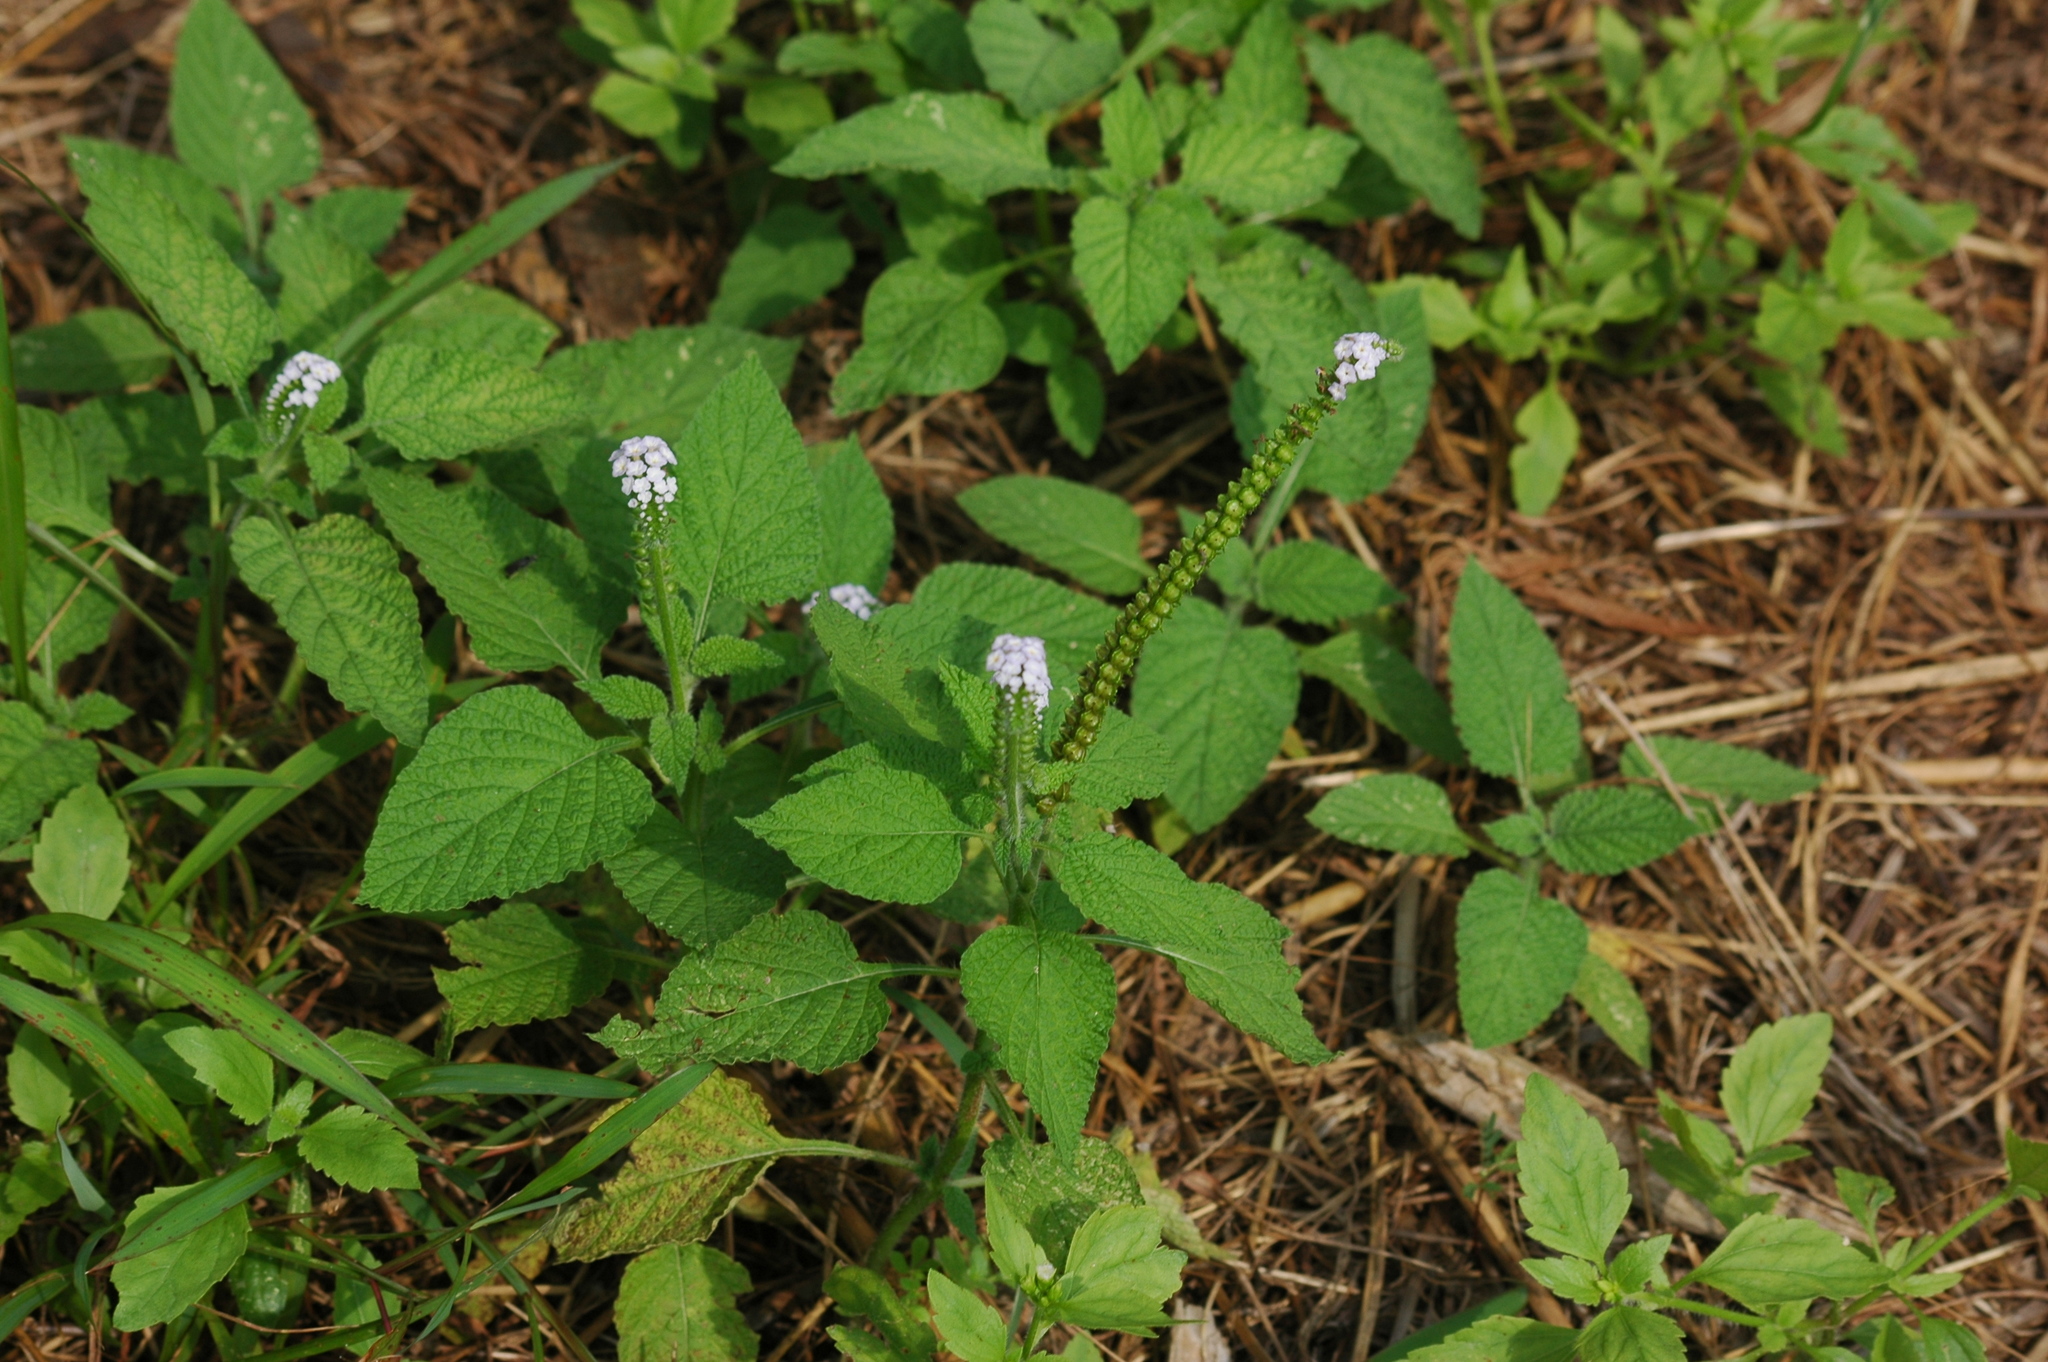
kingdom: Plantae
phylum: Tracheophyta
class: Magnoliopsida
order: Boraginales
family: Heliotropiaceae
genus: Heliotropium
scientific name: Heliotropium indicum
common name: Indian heliotrope
